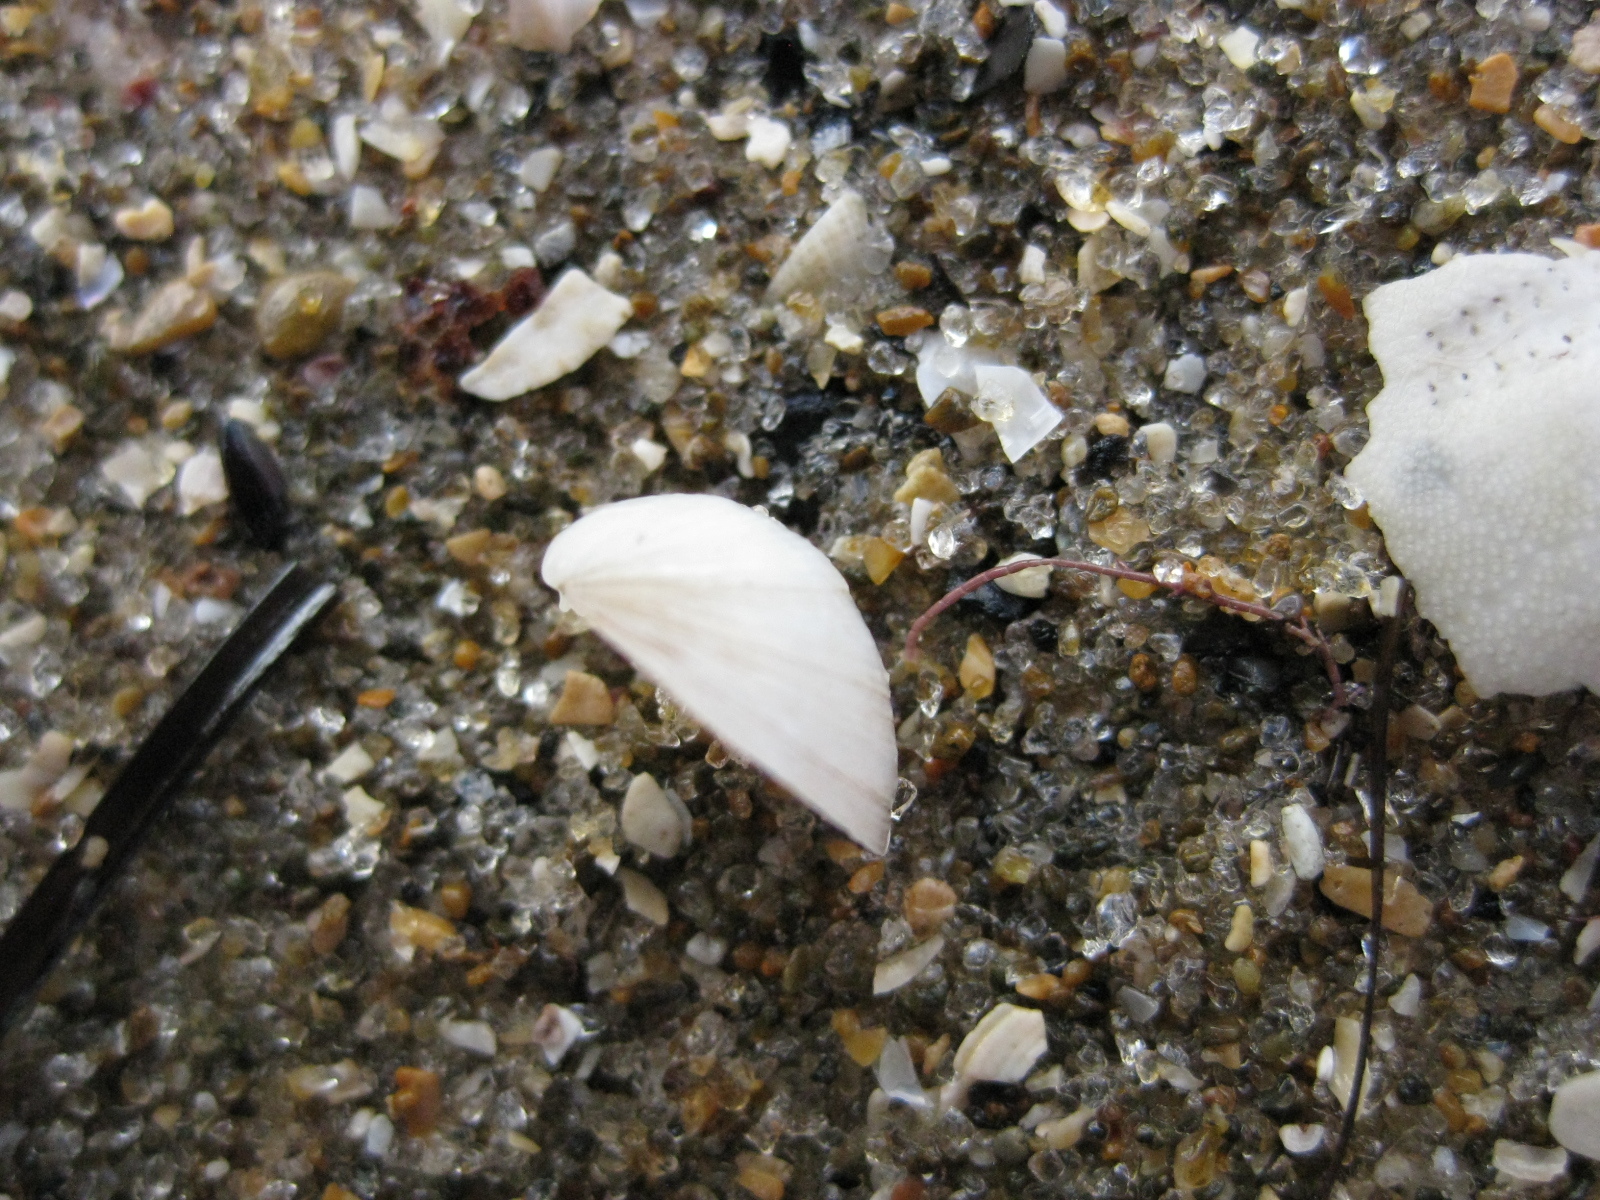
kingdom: Animalia
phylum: Mollusca
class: Bivalvia
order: Venerida
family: Ungulinidae
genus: Zemysina
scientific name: Zemysina striatula
